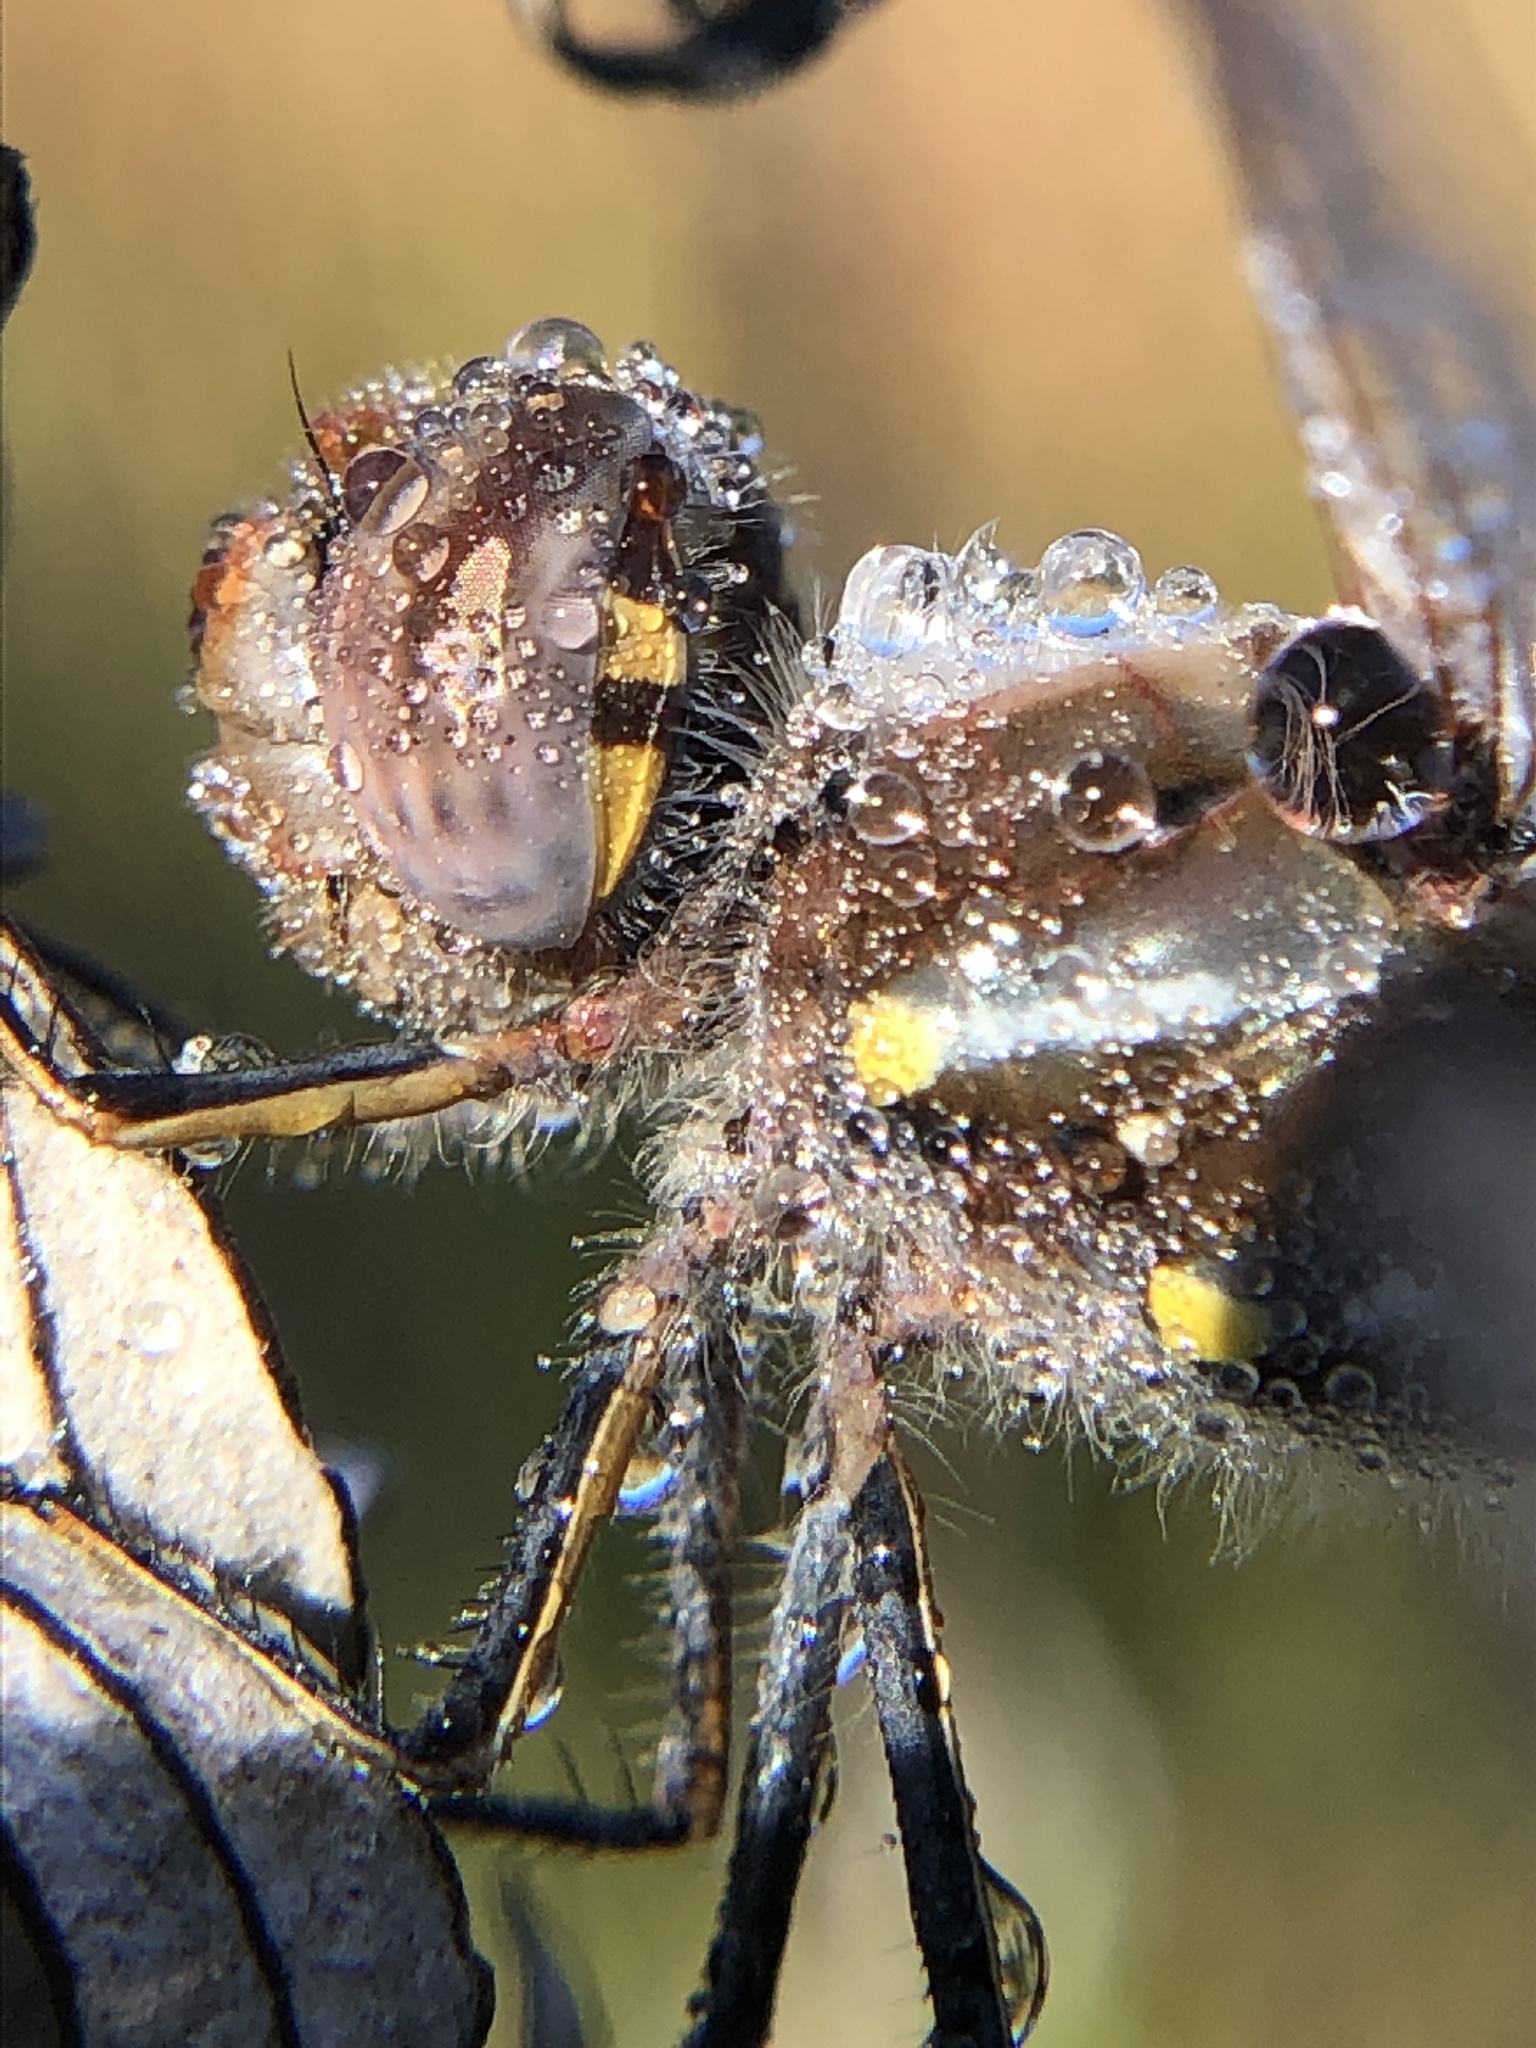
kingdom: Animalia
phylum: Arthropoda
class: Insecta
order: Odonata
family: Libellulidae
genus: Sympetrum
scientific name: Sympetrum corruptum
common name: Variegated meadowhawk
